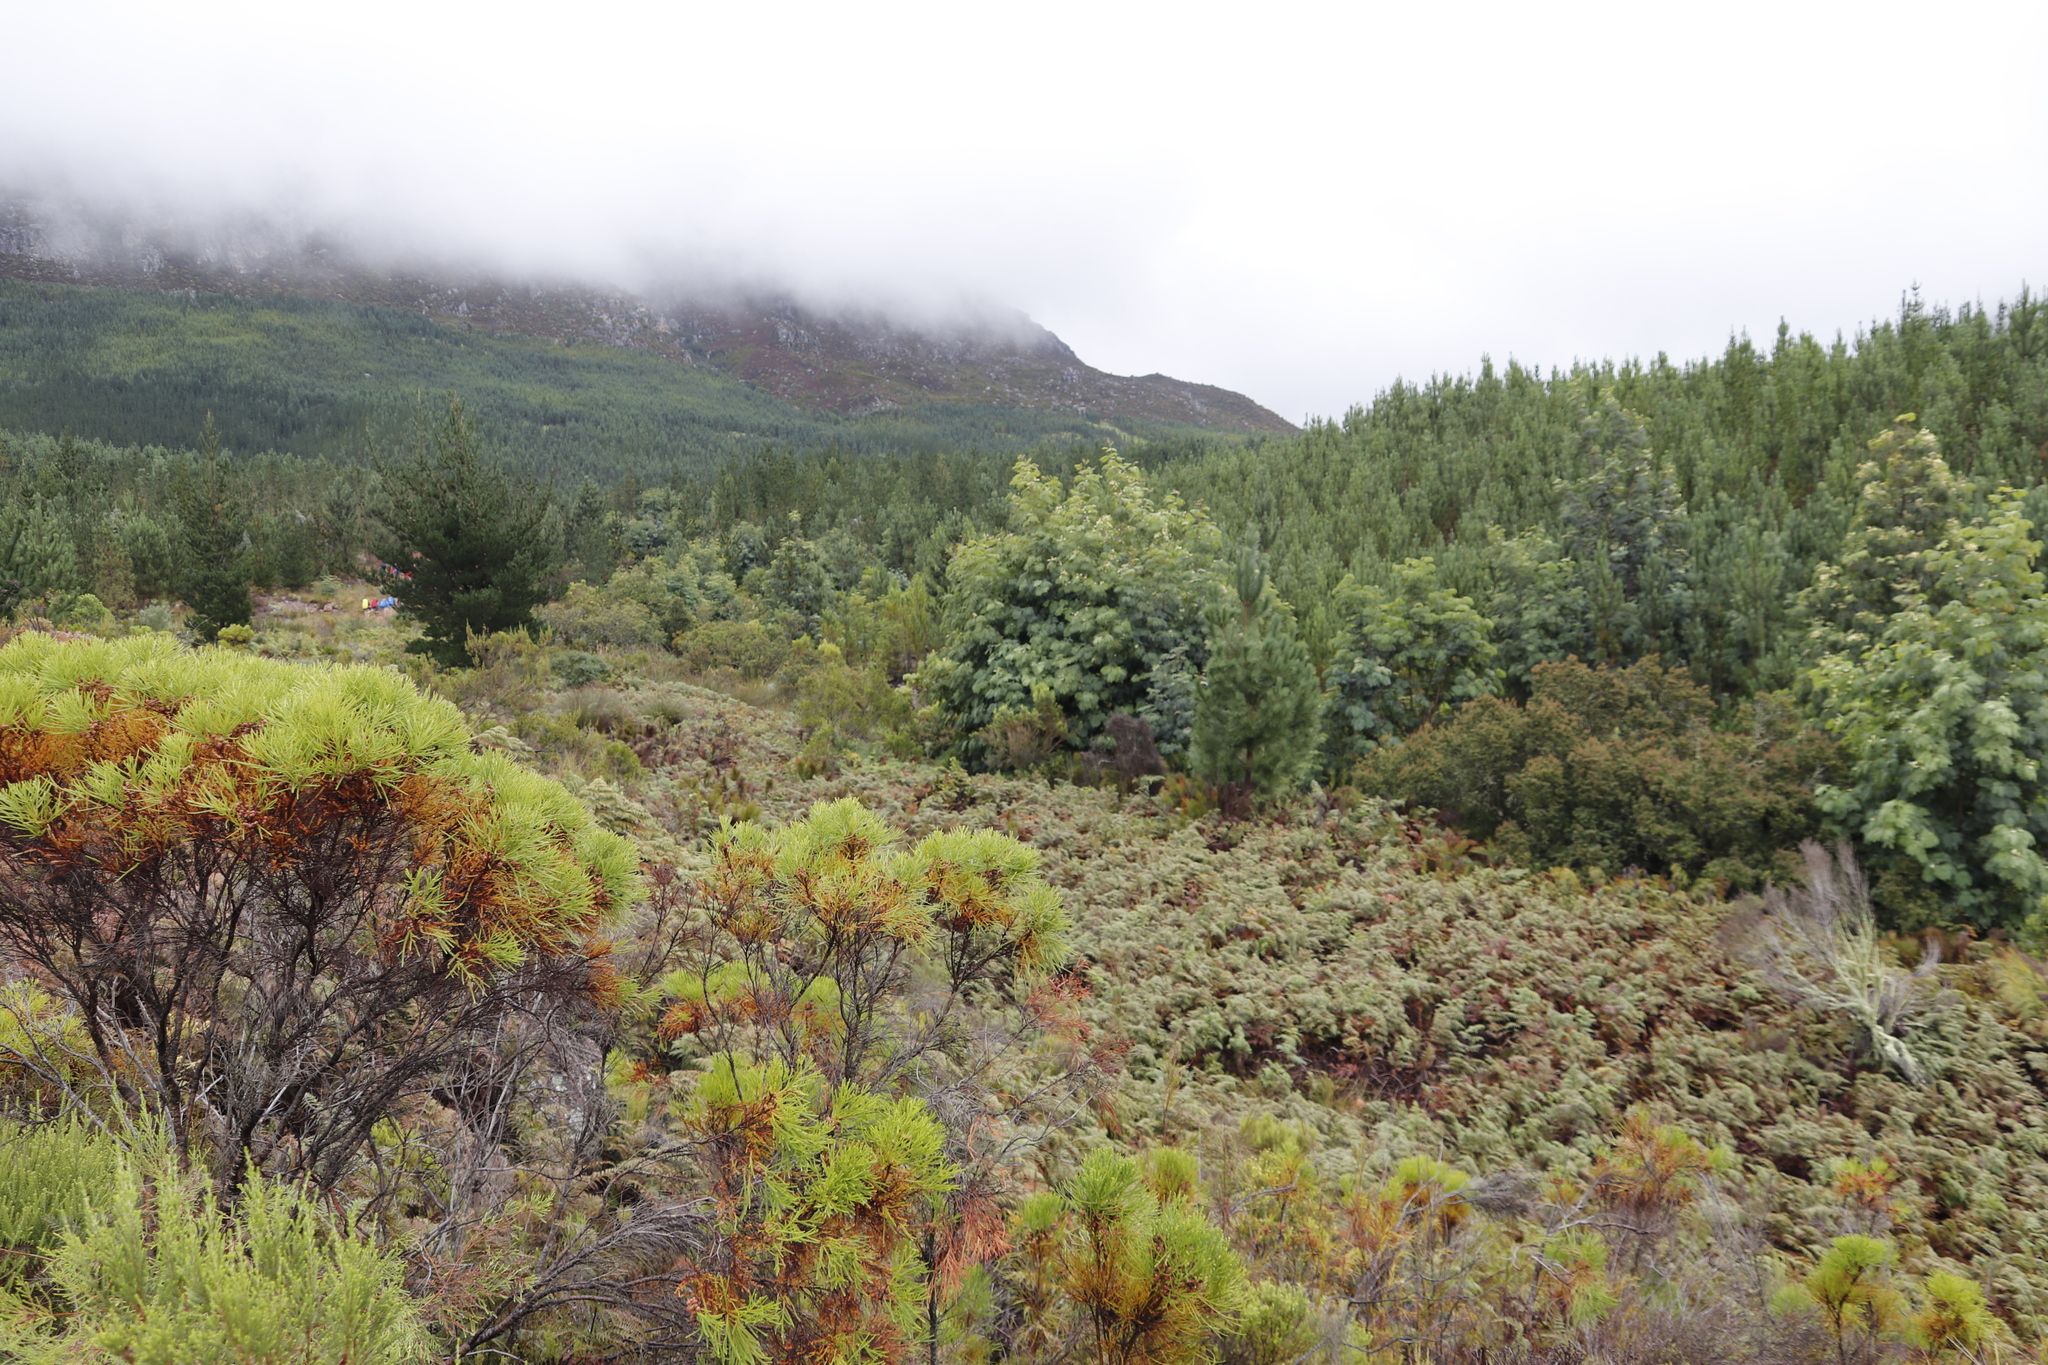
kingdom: Plantae
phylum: Tracheophyta
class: Magnoliopsida
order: Fabales
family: Fabaceae
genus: Acacia
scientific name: Acacia elata
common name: Cedar wattle
